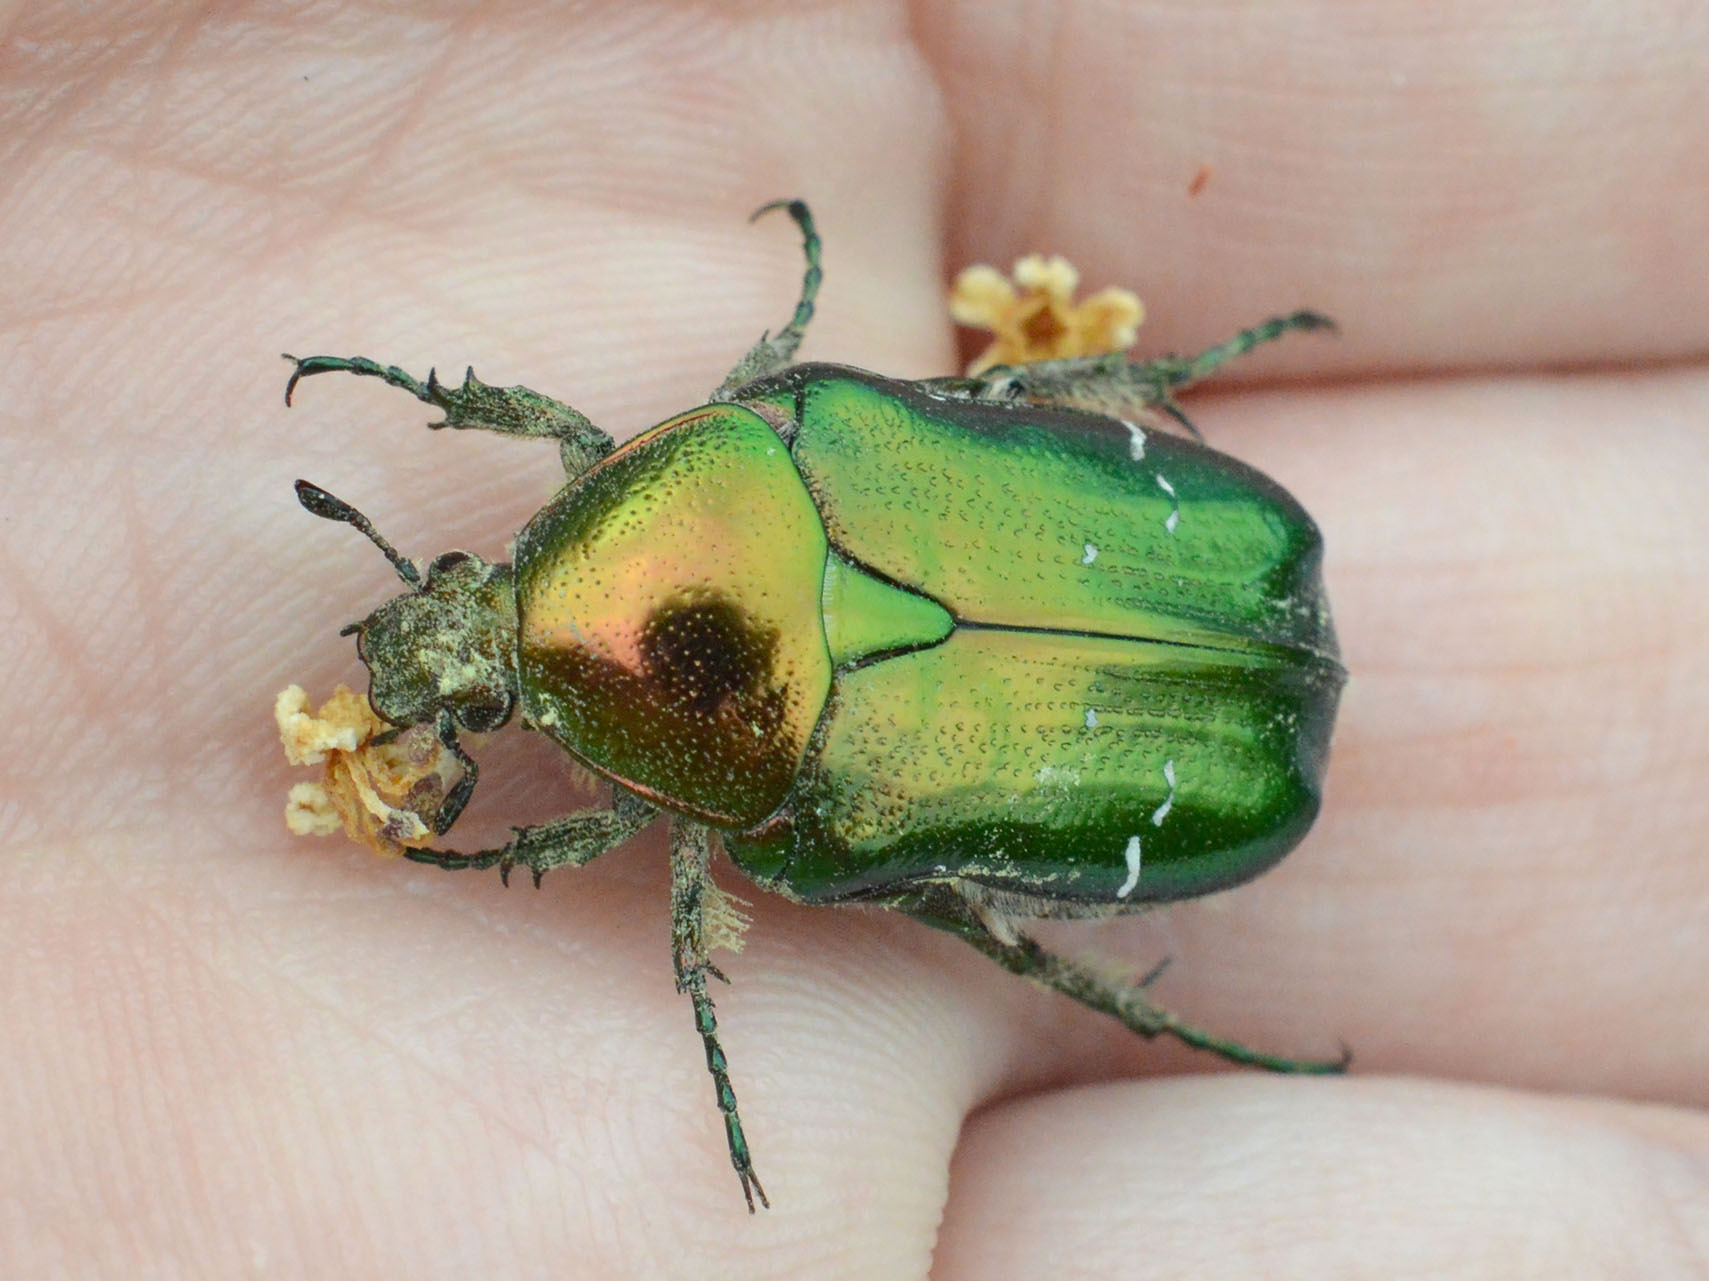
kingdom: Animalia
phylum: Arthropoda
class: Insecta
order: Coleoptera
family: Scarabaeidae
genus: Cetonia
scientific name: Cetonia aurata
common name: Rose chafer
